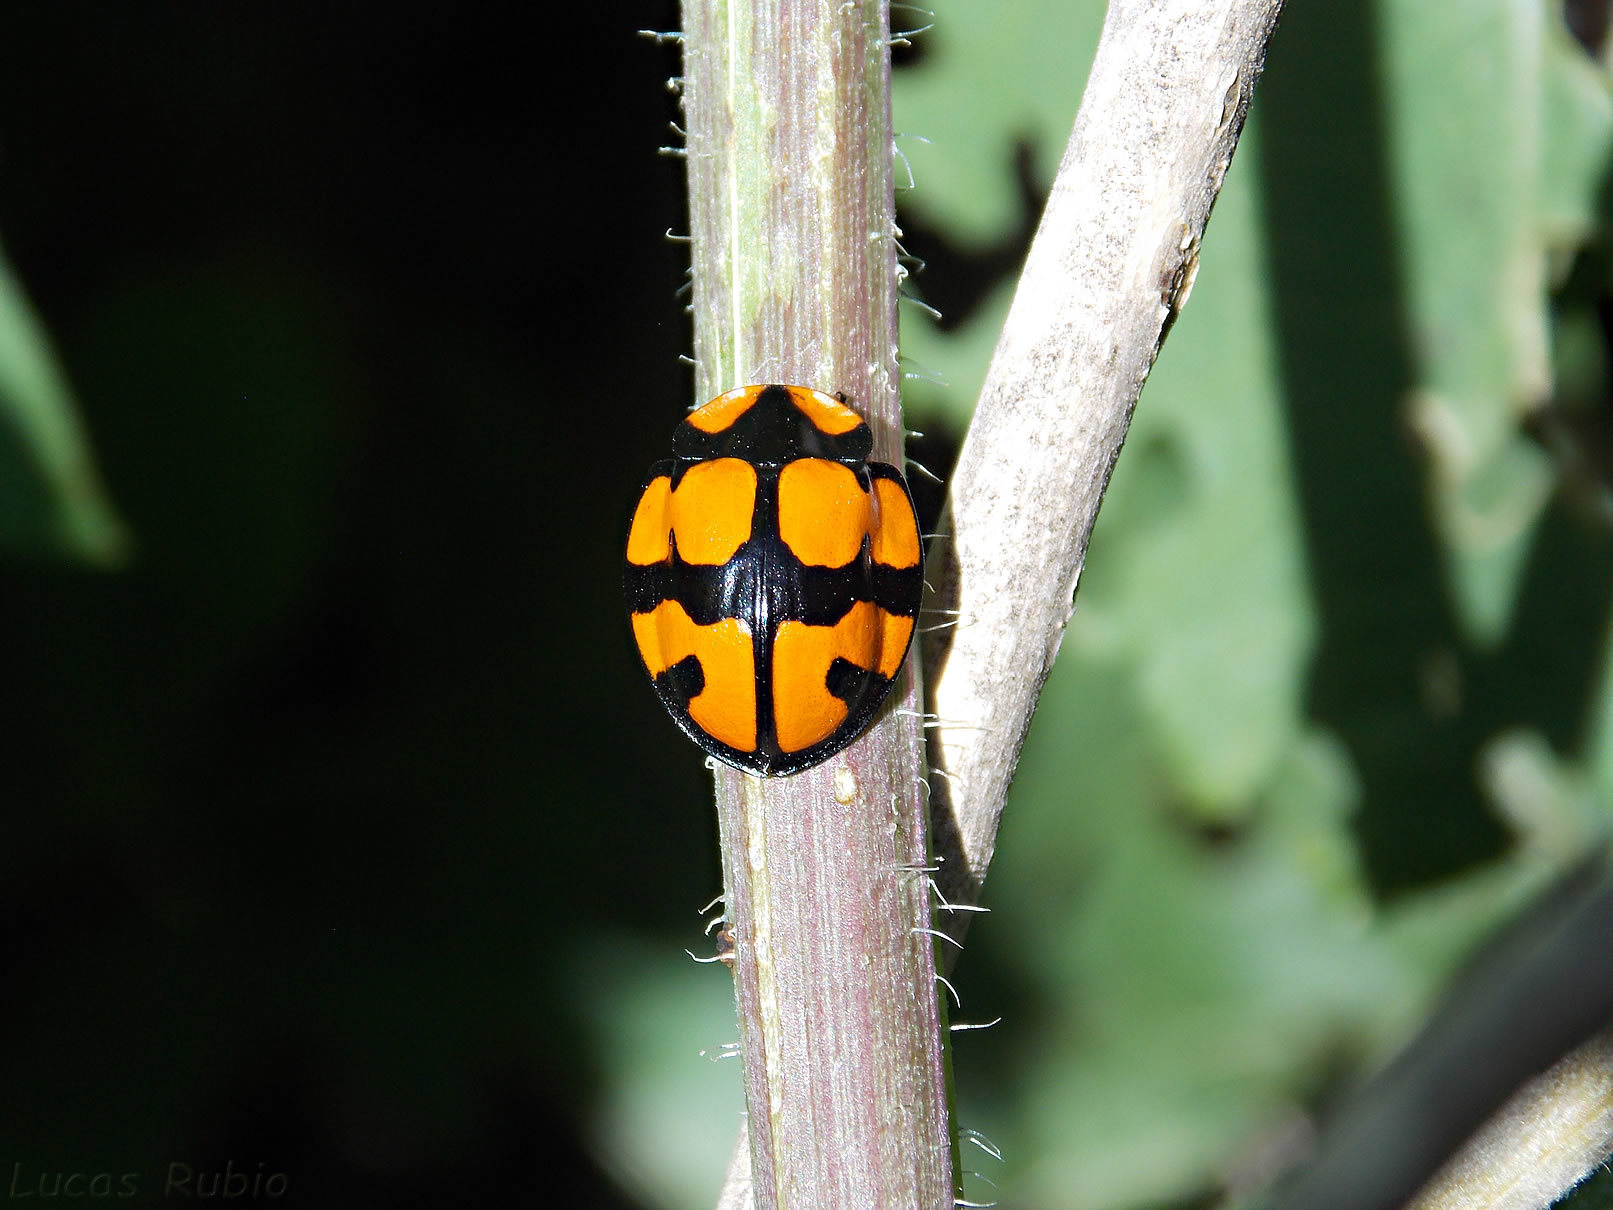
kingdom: Animalia
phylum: Arthropoda
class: Insecta
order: Coleoptera
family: Chrysomelidae
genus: Botanochara
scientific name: Botanochara cancellata
